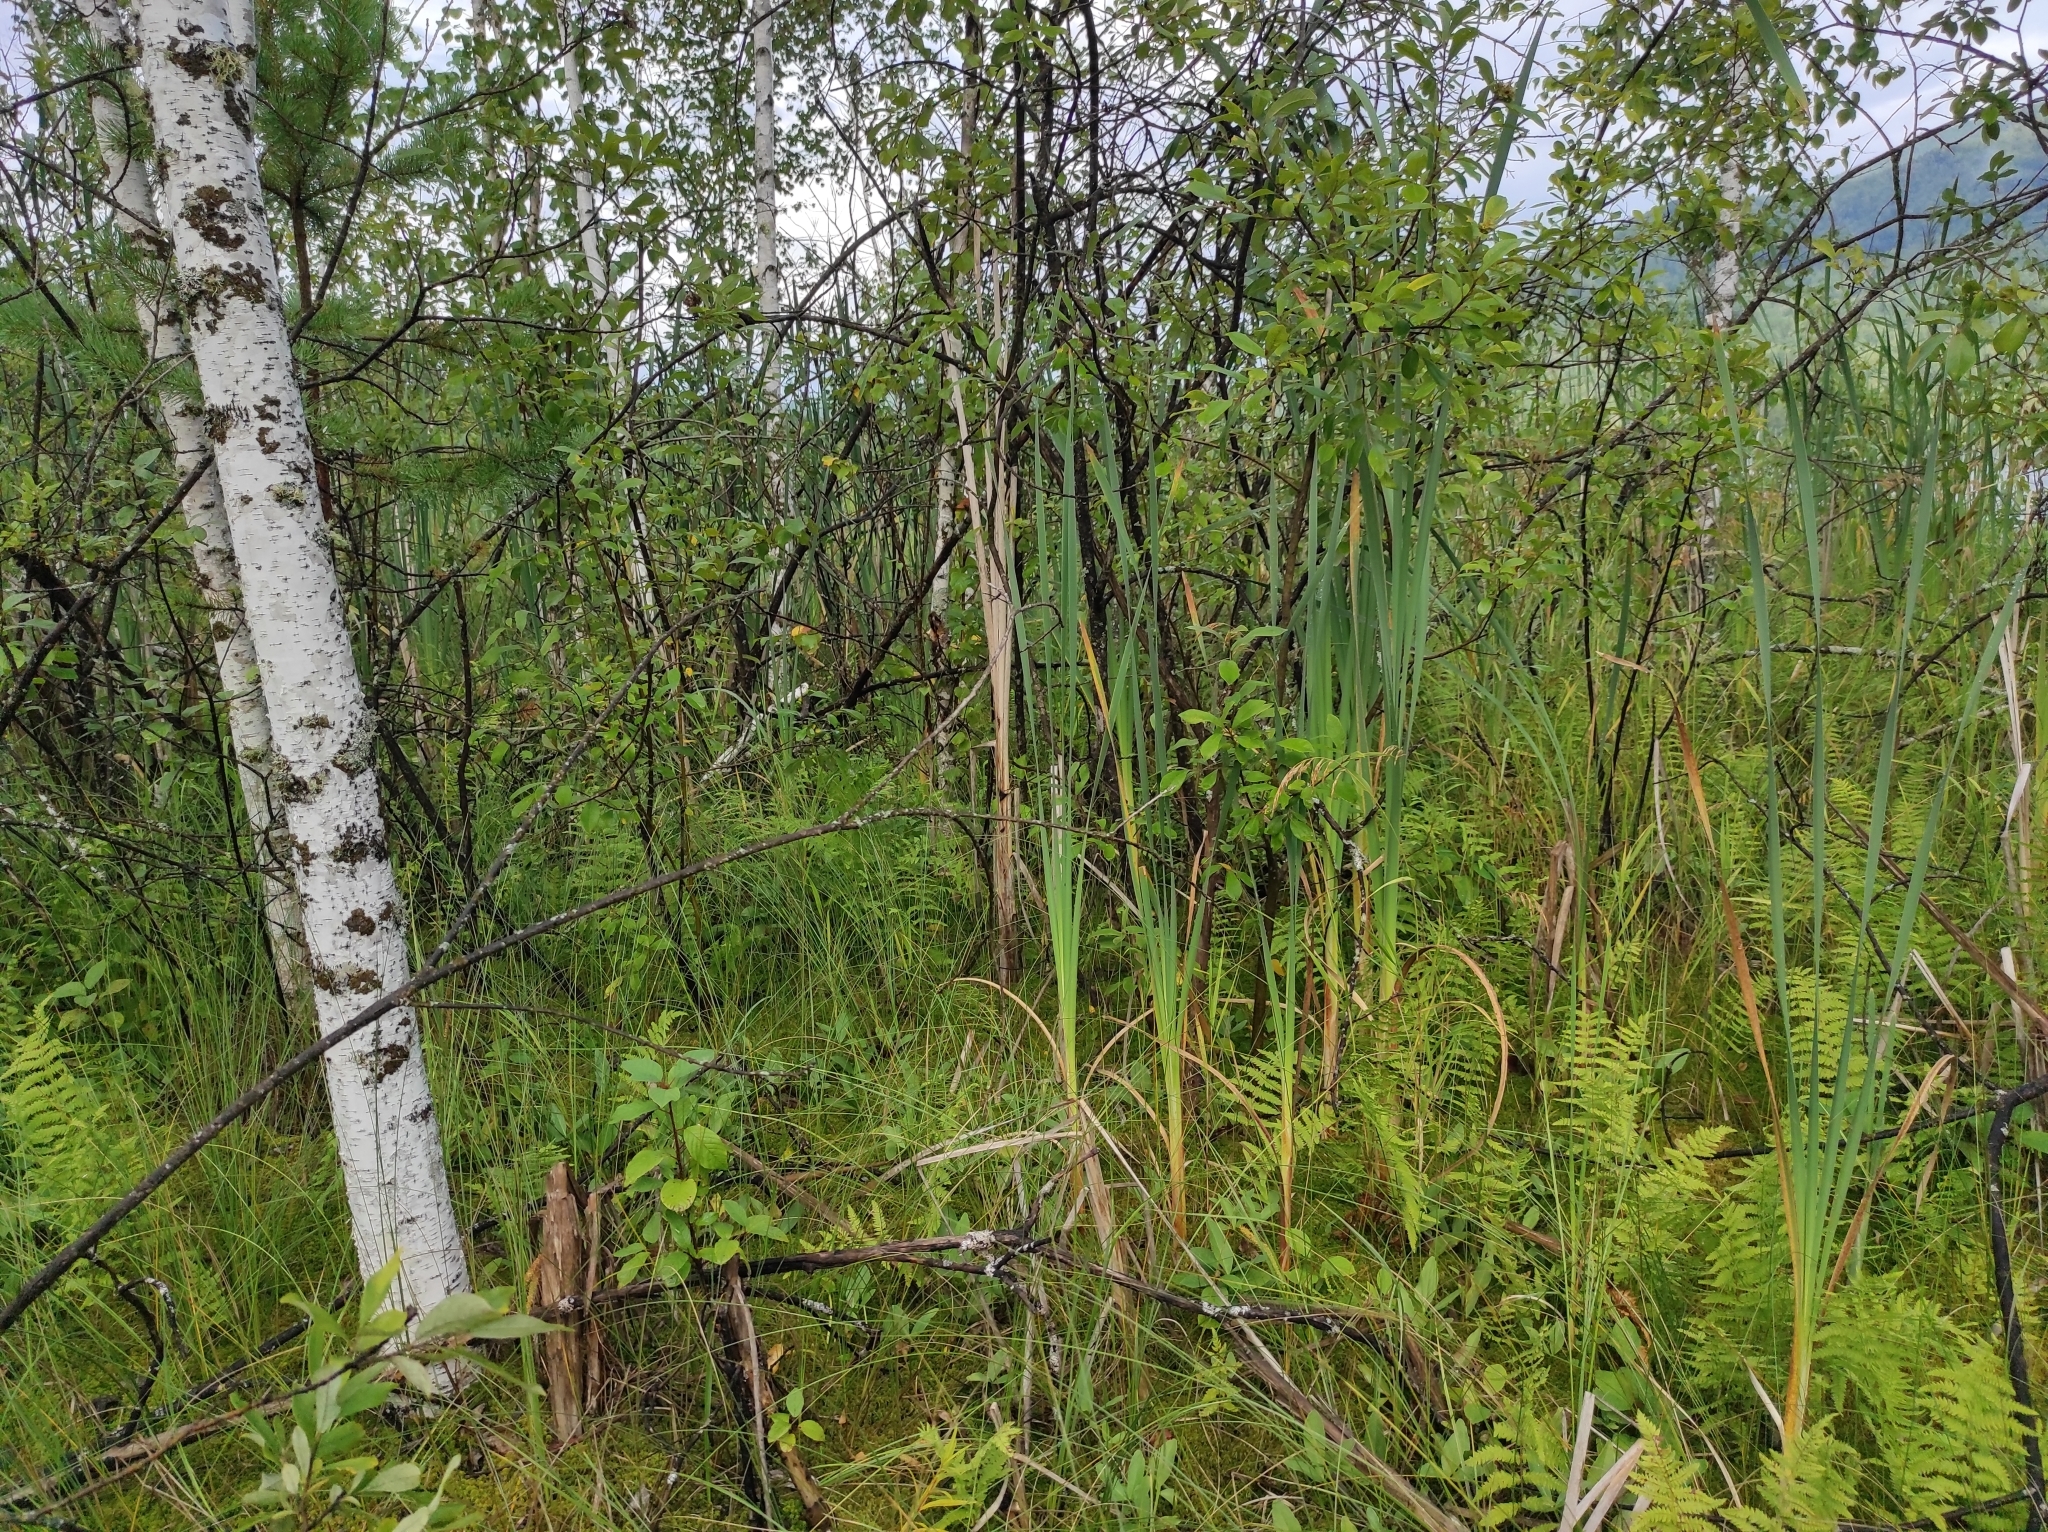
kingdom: Plantae
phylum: Tracheophyta
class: Magnoliopsida
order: Fagales
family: Betulaceae
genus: Betula
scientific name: Betula pubescens
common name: Downy birch
